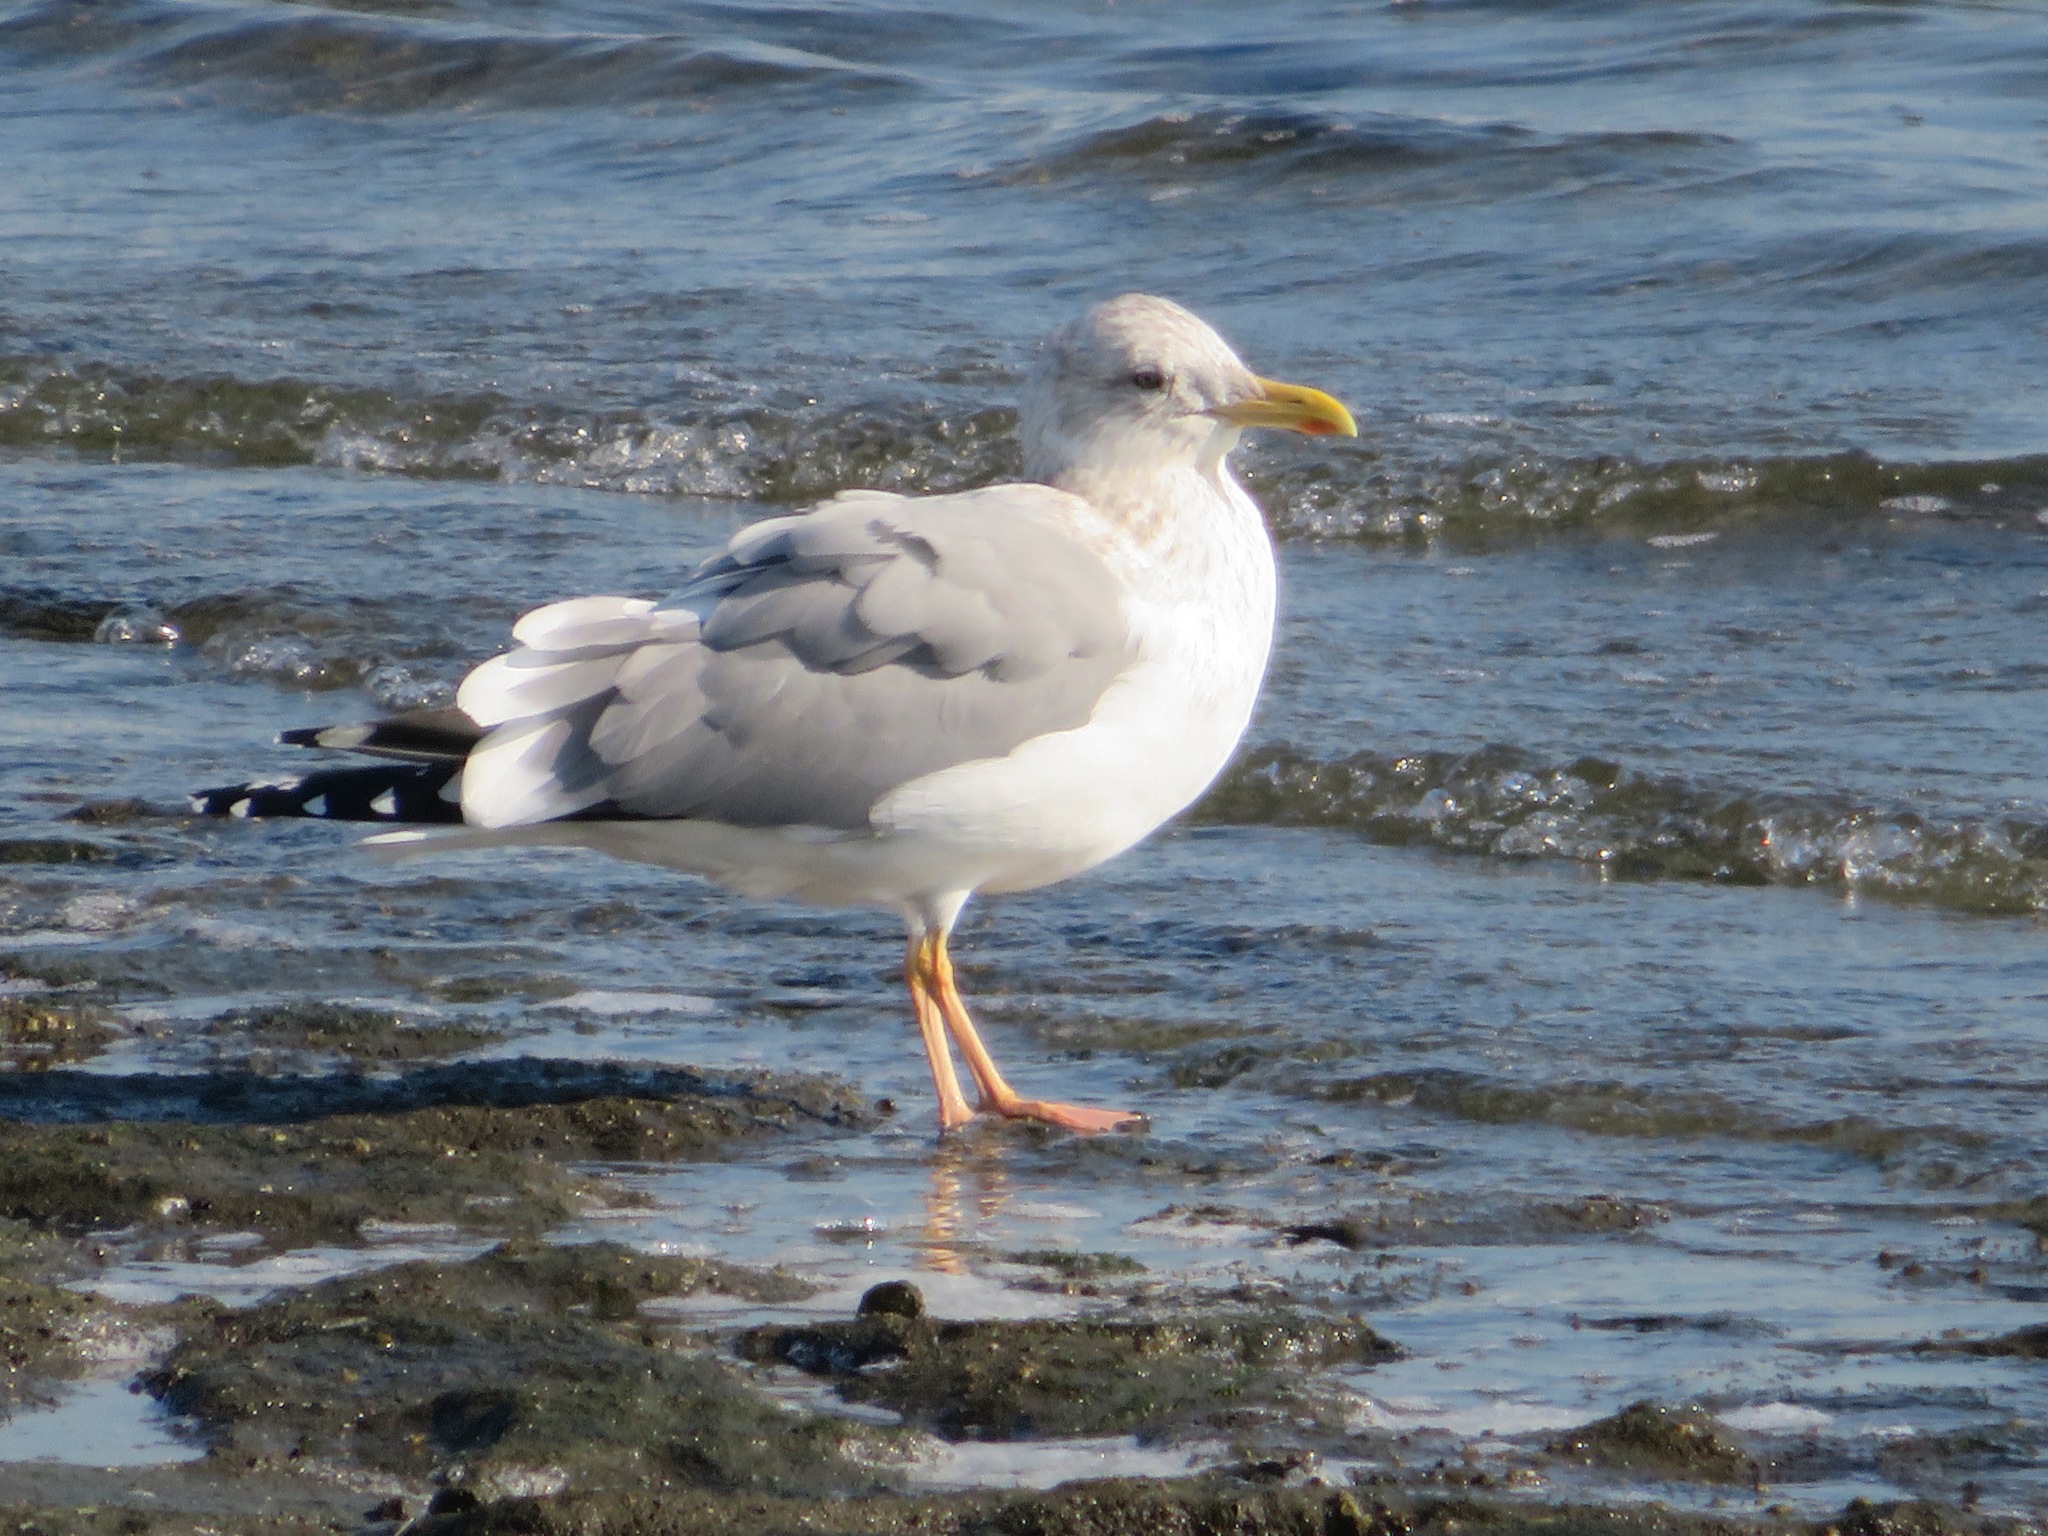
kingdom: Animalia
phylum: Chordata
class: Aves
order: Charadriiformes
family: Laridae
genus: Larus
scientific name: Larus vegae
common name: Vega gull
